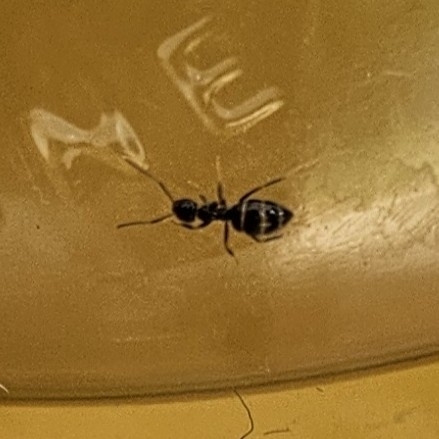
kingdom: Animalia
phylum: Arthropoda
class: Insecta
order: Hymenoptera
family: Formicidae
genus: Technomyrmex
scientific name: Technomyrmex jocosus
